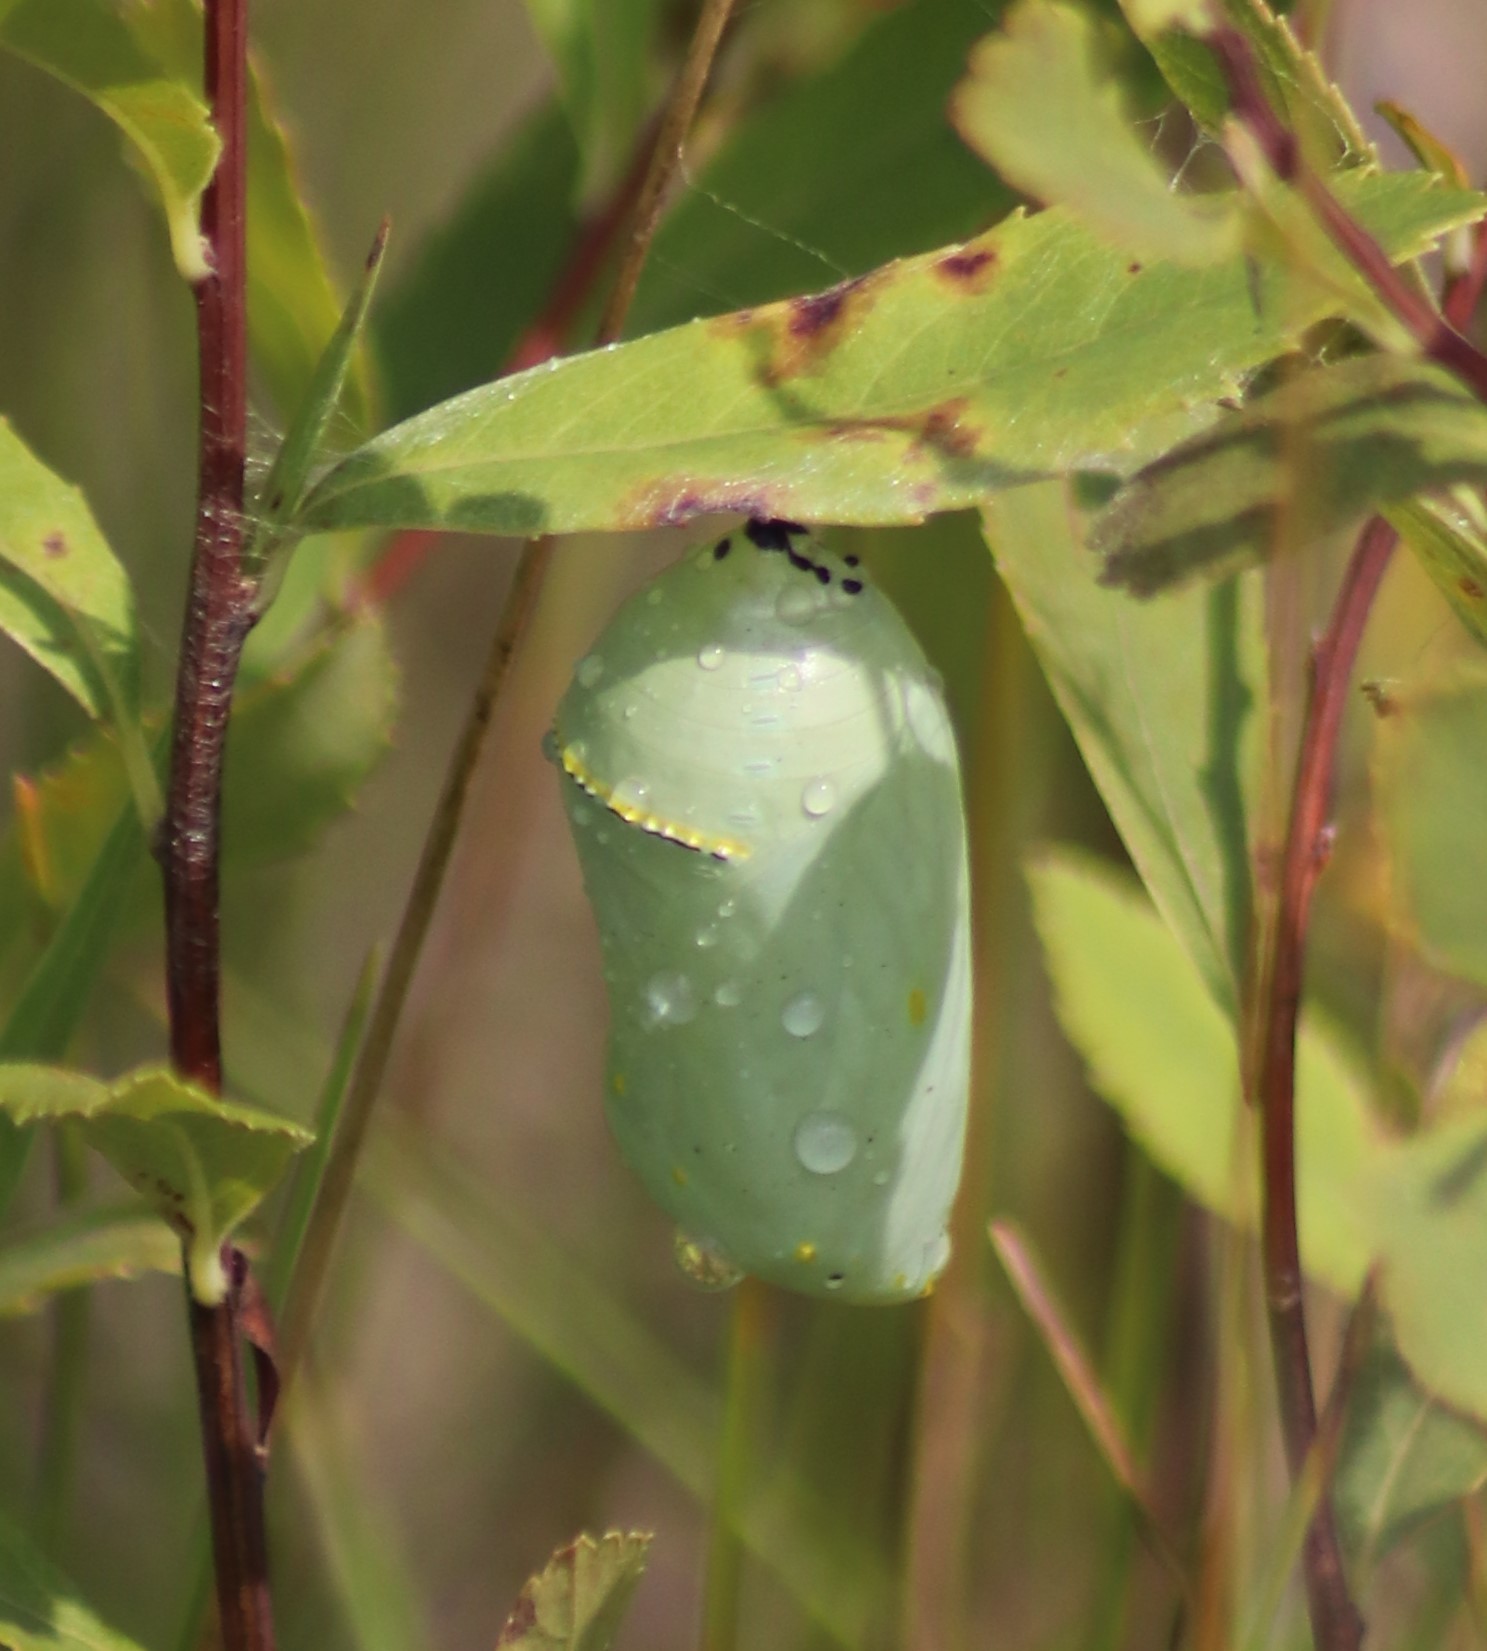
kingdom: Animalia
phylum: Arthropoda
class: Insecta
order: Lepidoptera
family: Nymphalidae
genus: Danaus
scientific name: Danaus plexippus
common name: Monarch
